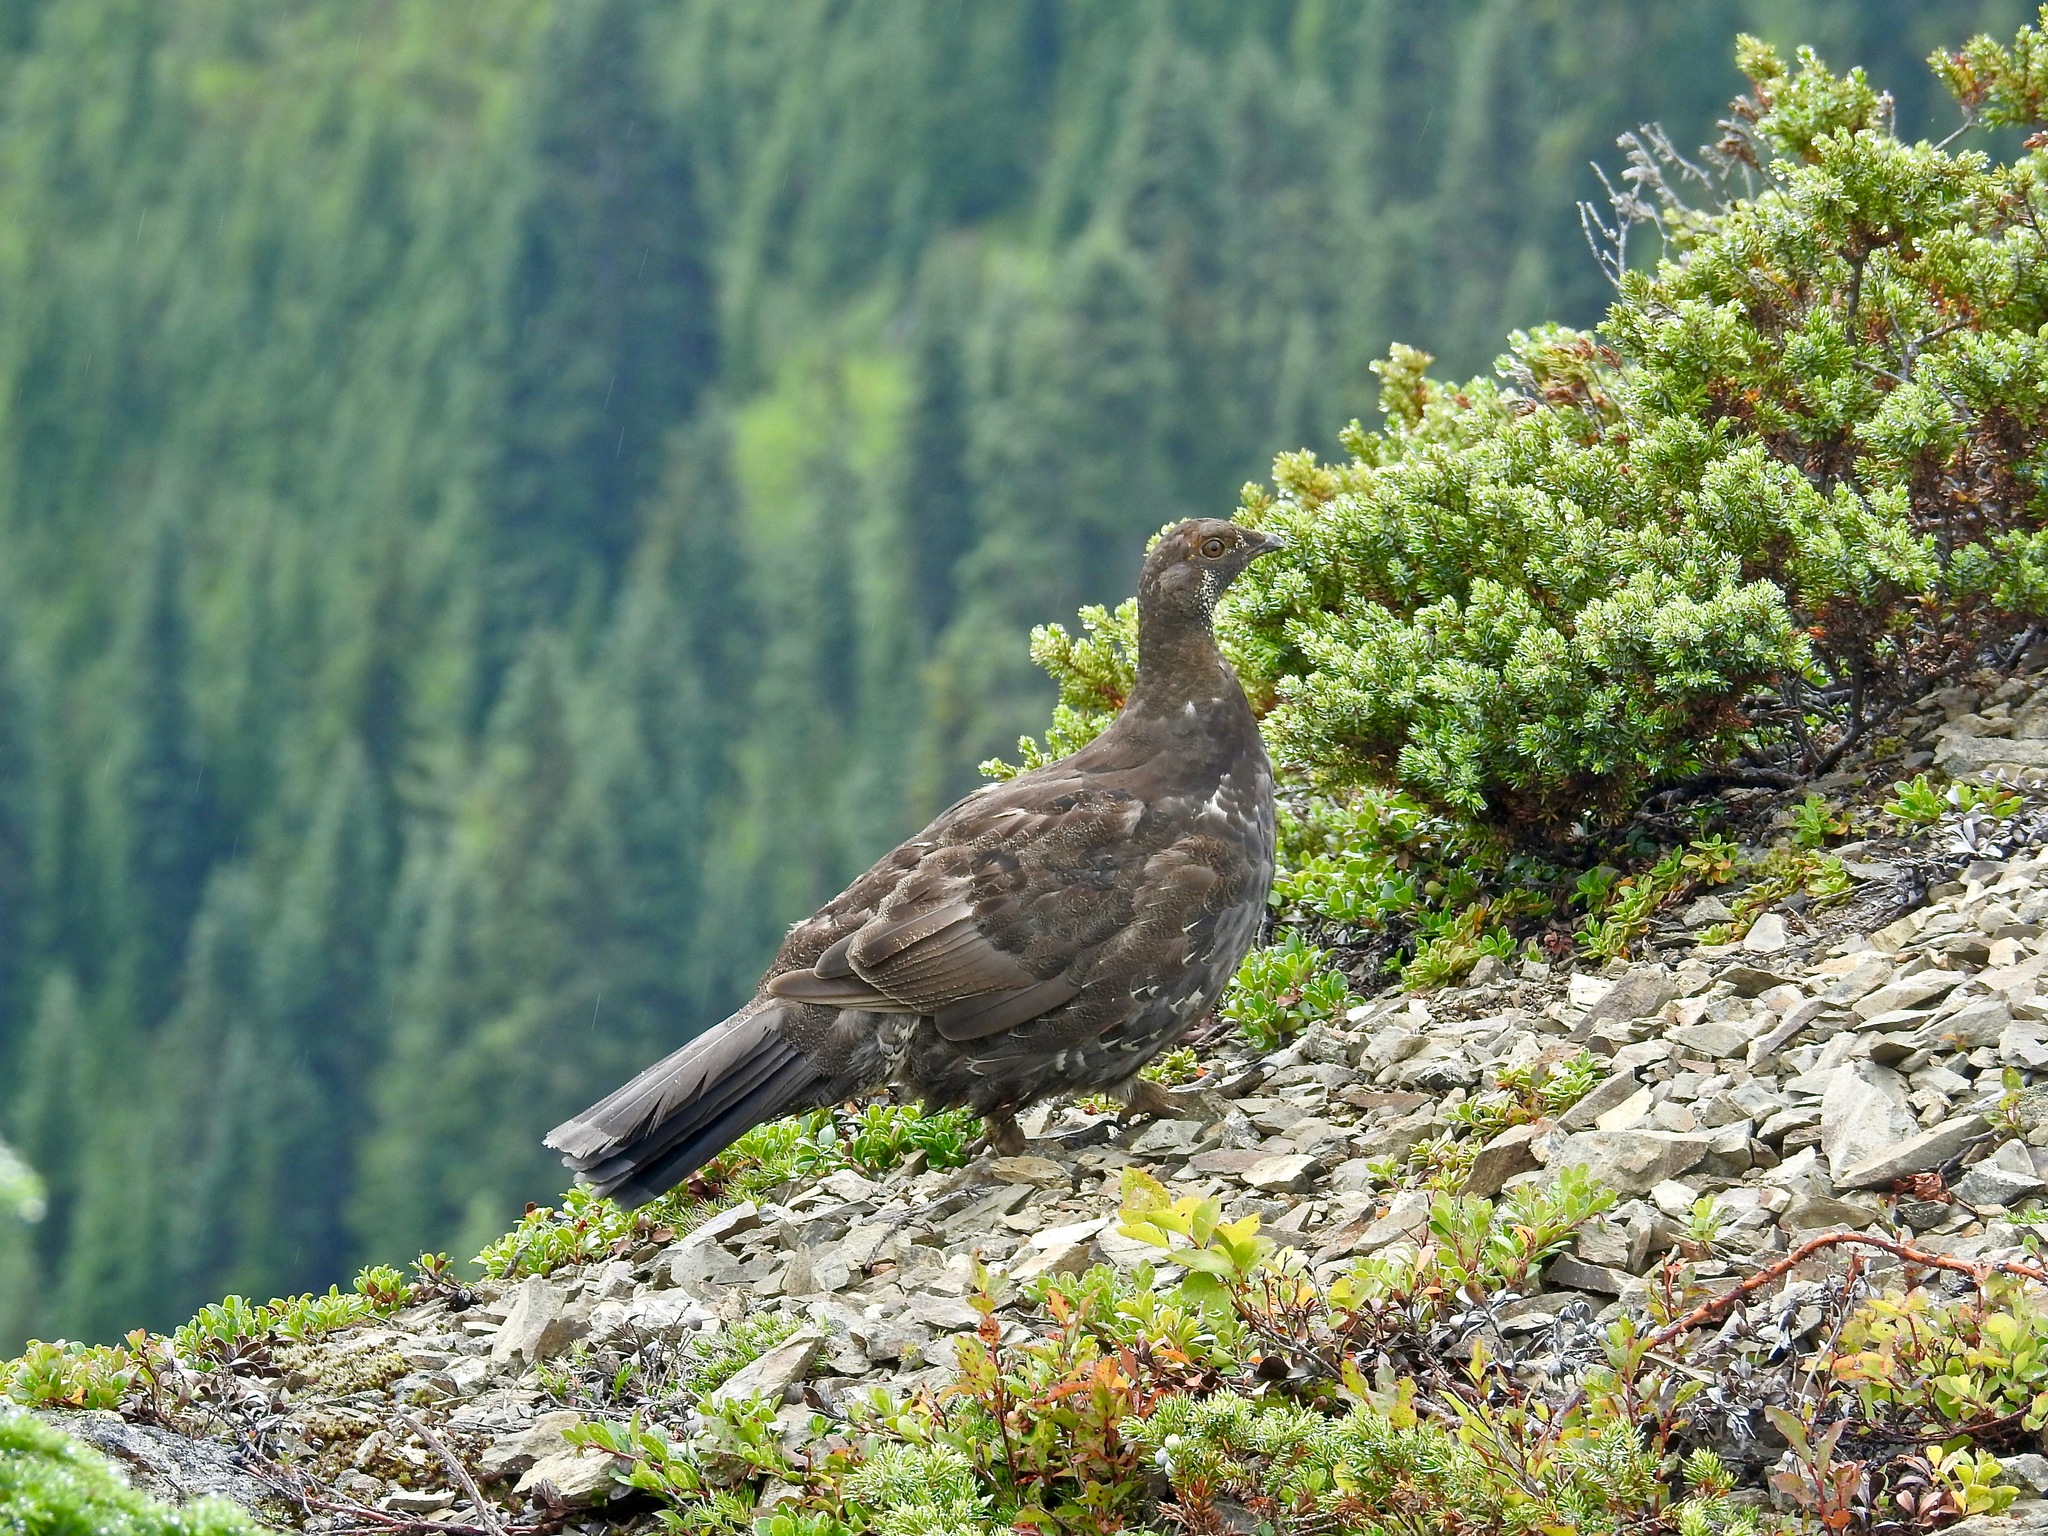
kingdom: Animalia
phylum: Chordata
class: Aves
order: Galliformes
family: Phasianidae
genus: Dendragapus
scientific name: Dendragapus fuliginosus
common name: Sooty grouse
